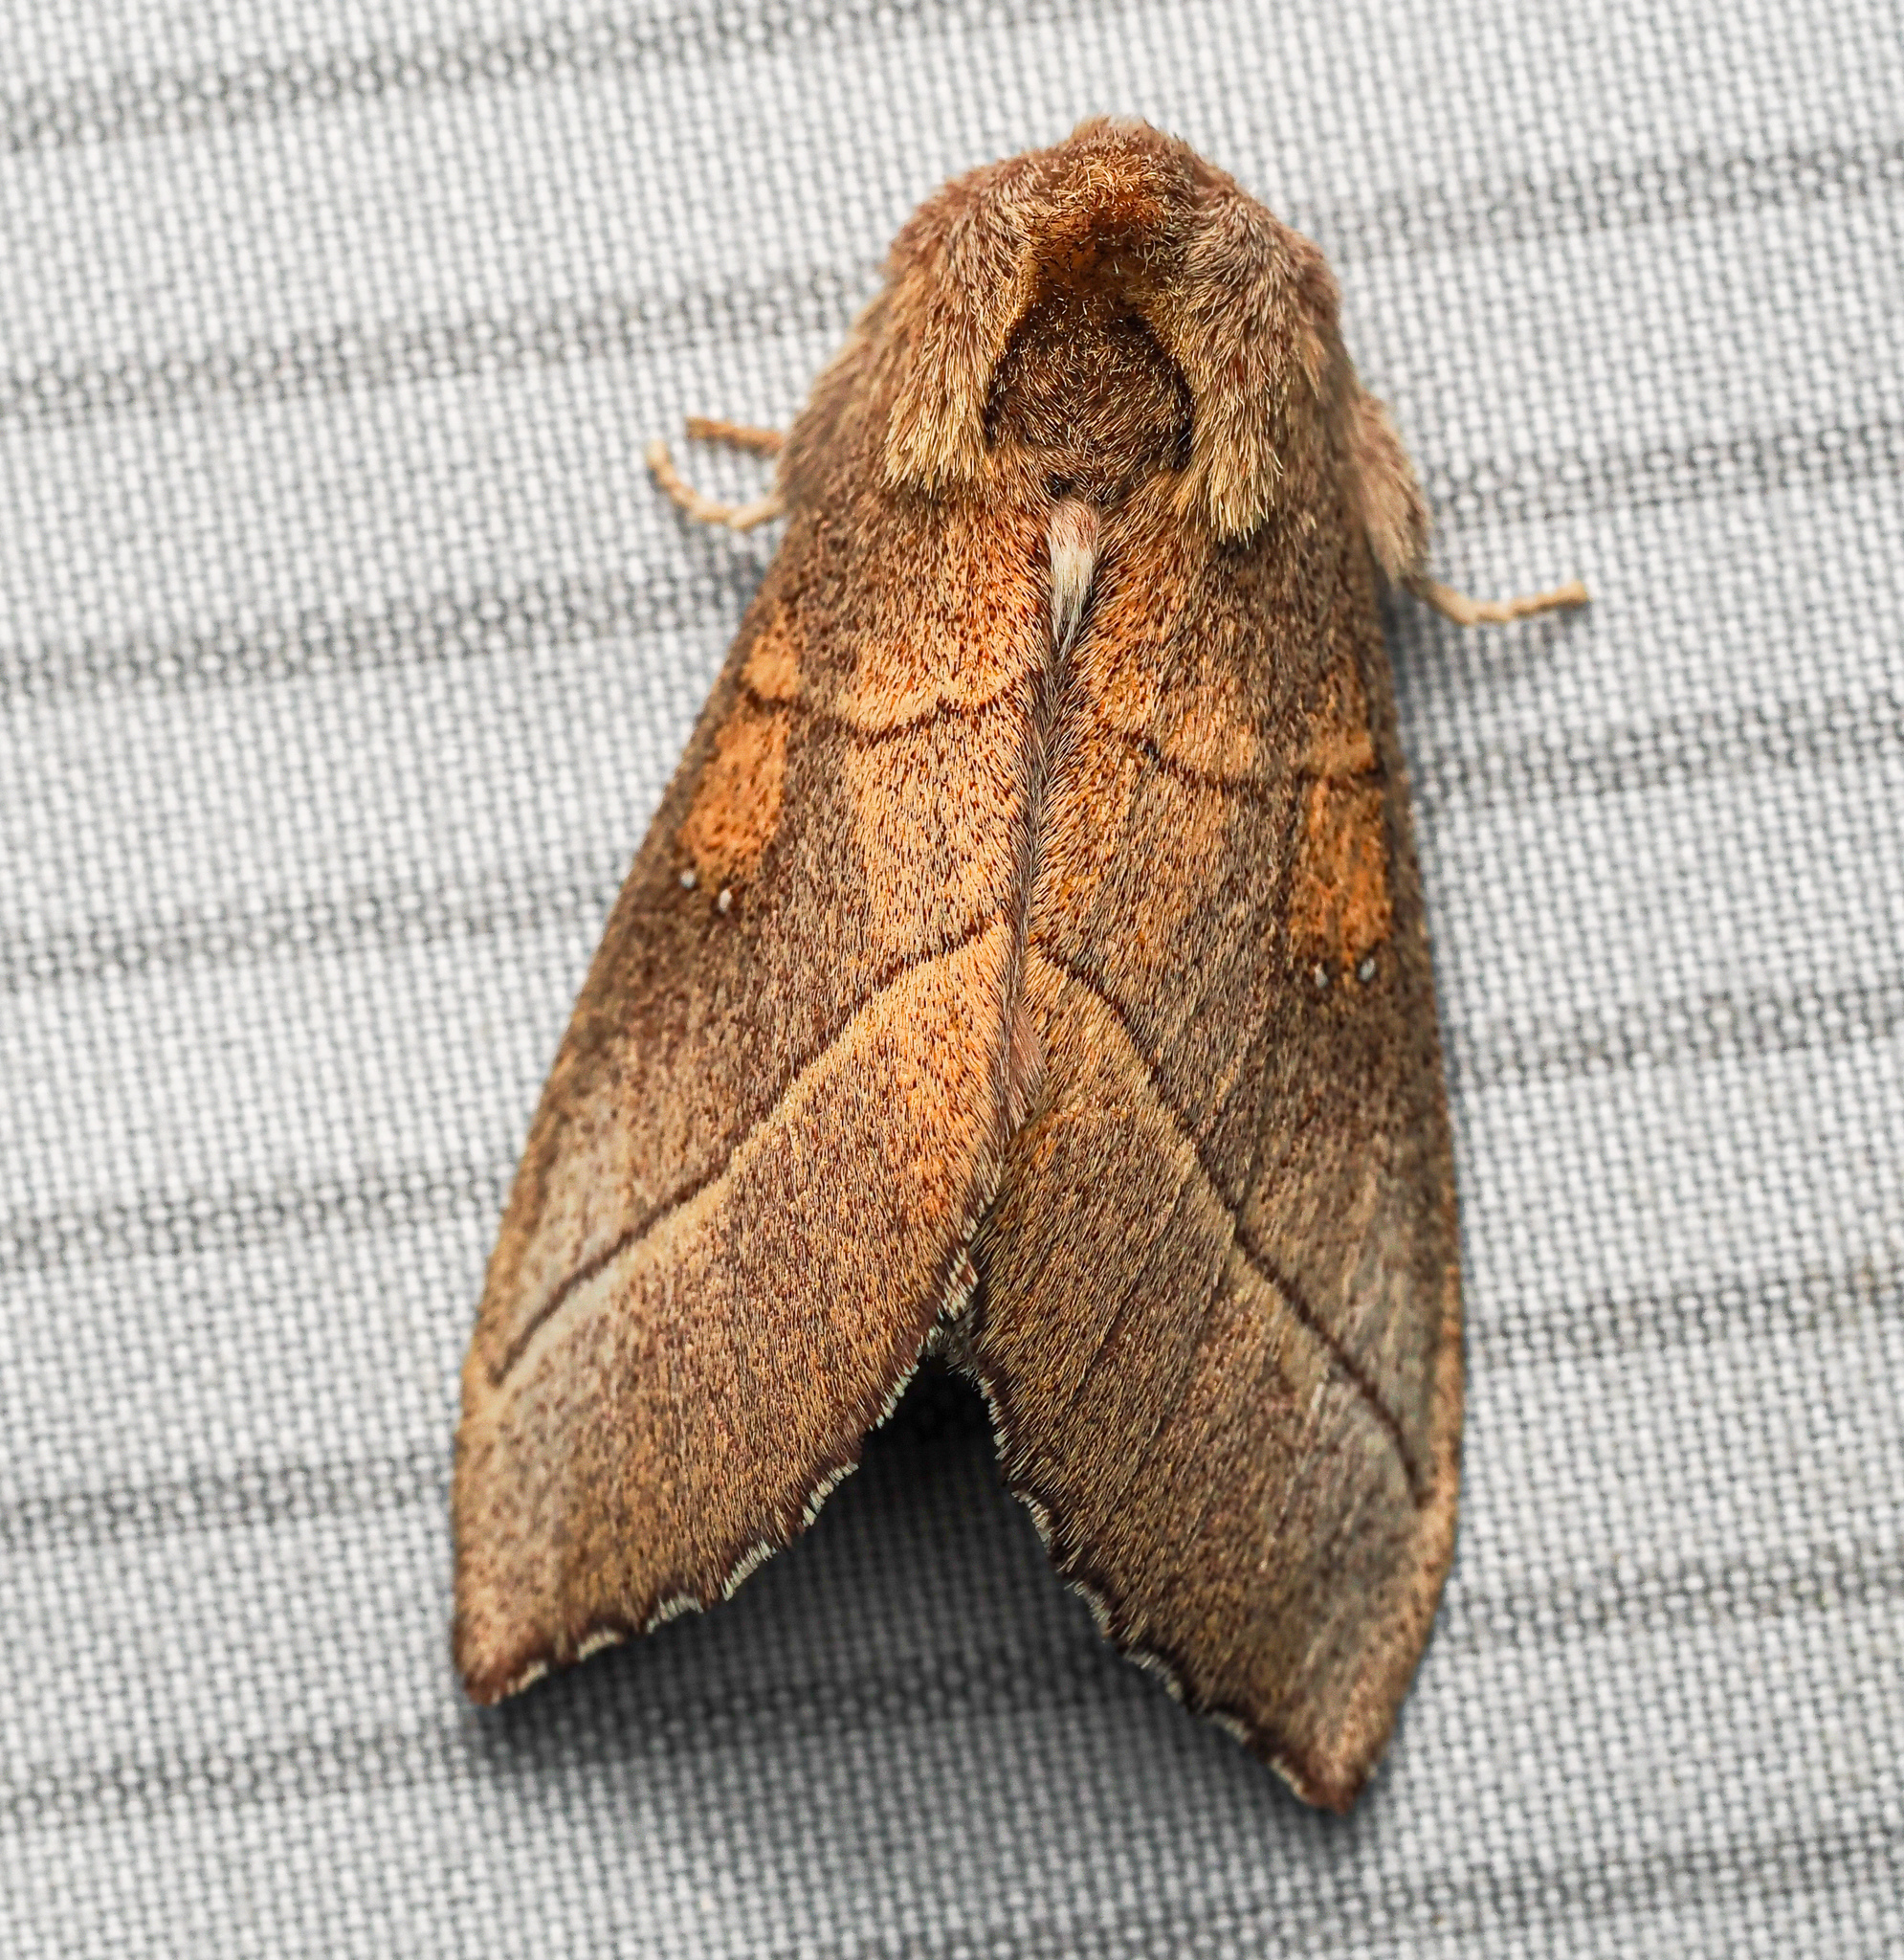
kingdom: Animalia
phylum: Arthropoda
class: Insecta
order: Lepidoptera
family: Notodontidae
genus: Nadata
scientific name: Nadata gibbosa
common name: White-dotted prominent
